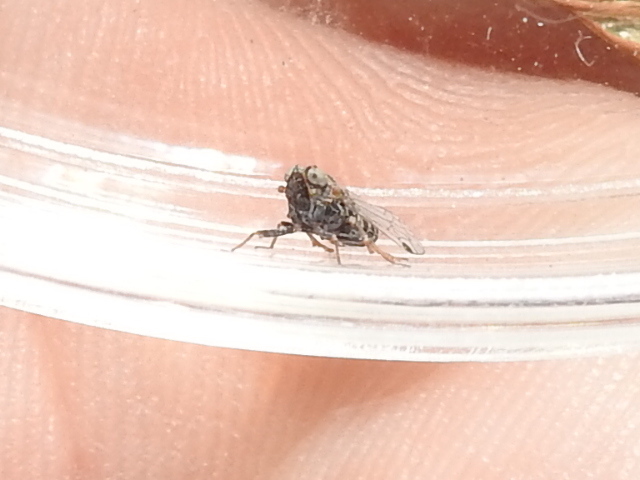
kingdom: Animalia
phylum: Arthropoda
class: Insecta
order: Hemiptera
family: Cixiidae
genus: Melanoliarus
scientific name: Melanoliarus acicus
